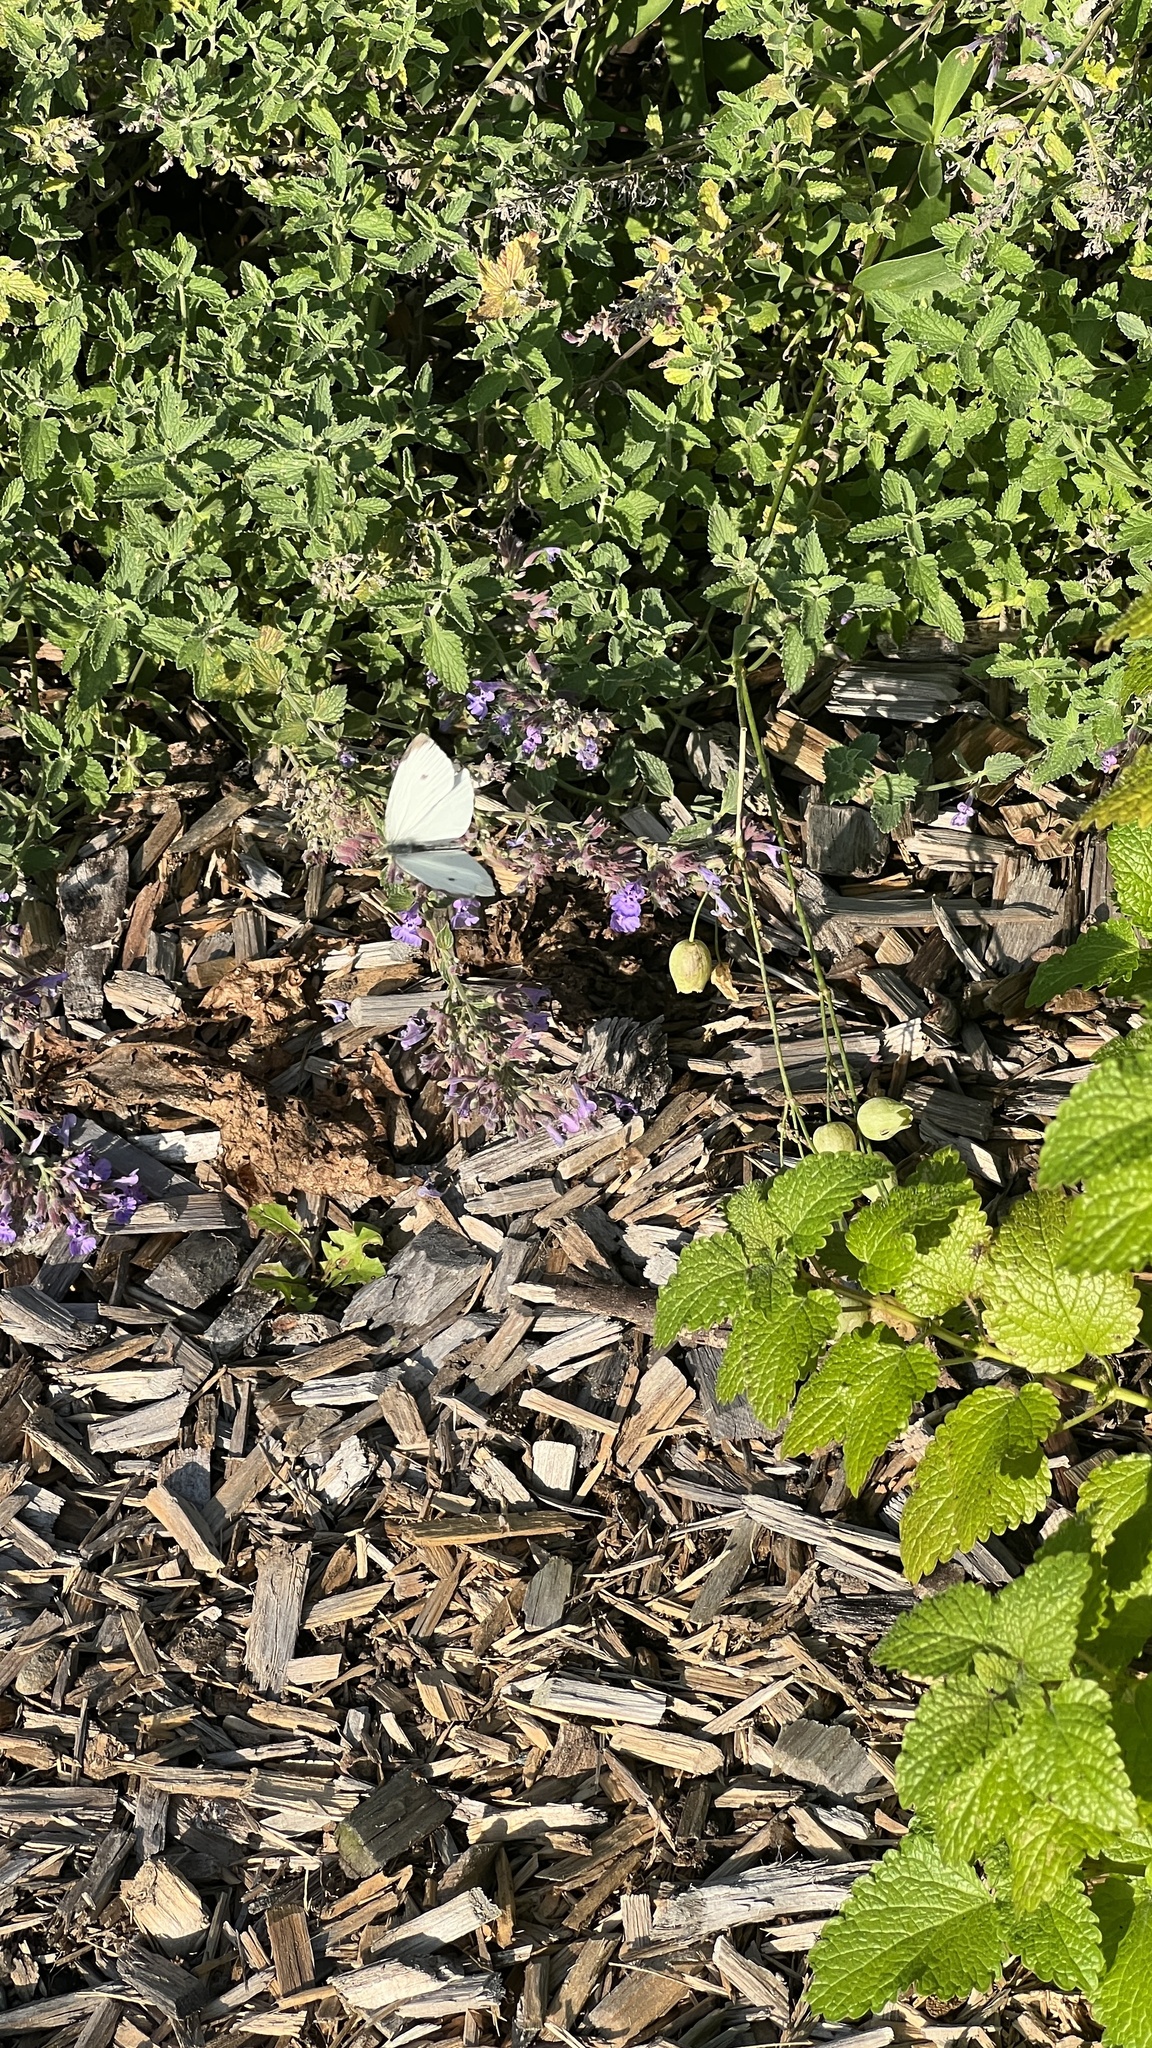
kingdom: Animalia
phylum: Arthropoda
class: Insecta
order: Lepidoptera
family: Pieridae
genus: Pieris
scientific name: Pieris rapae
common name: Small white
